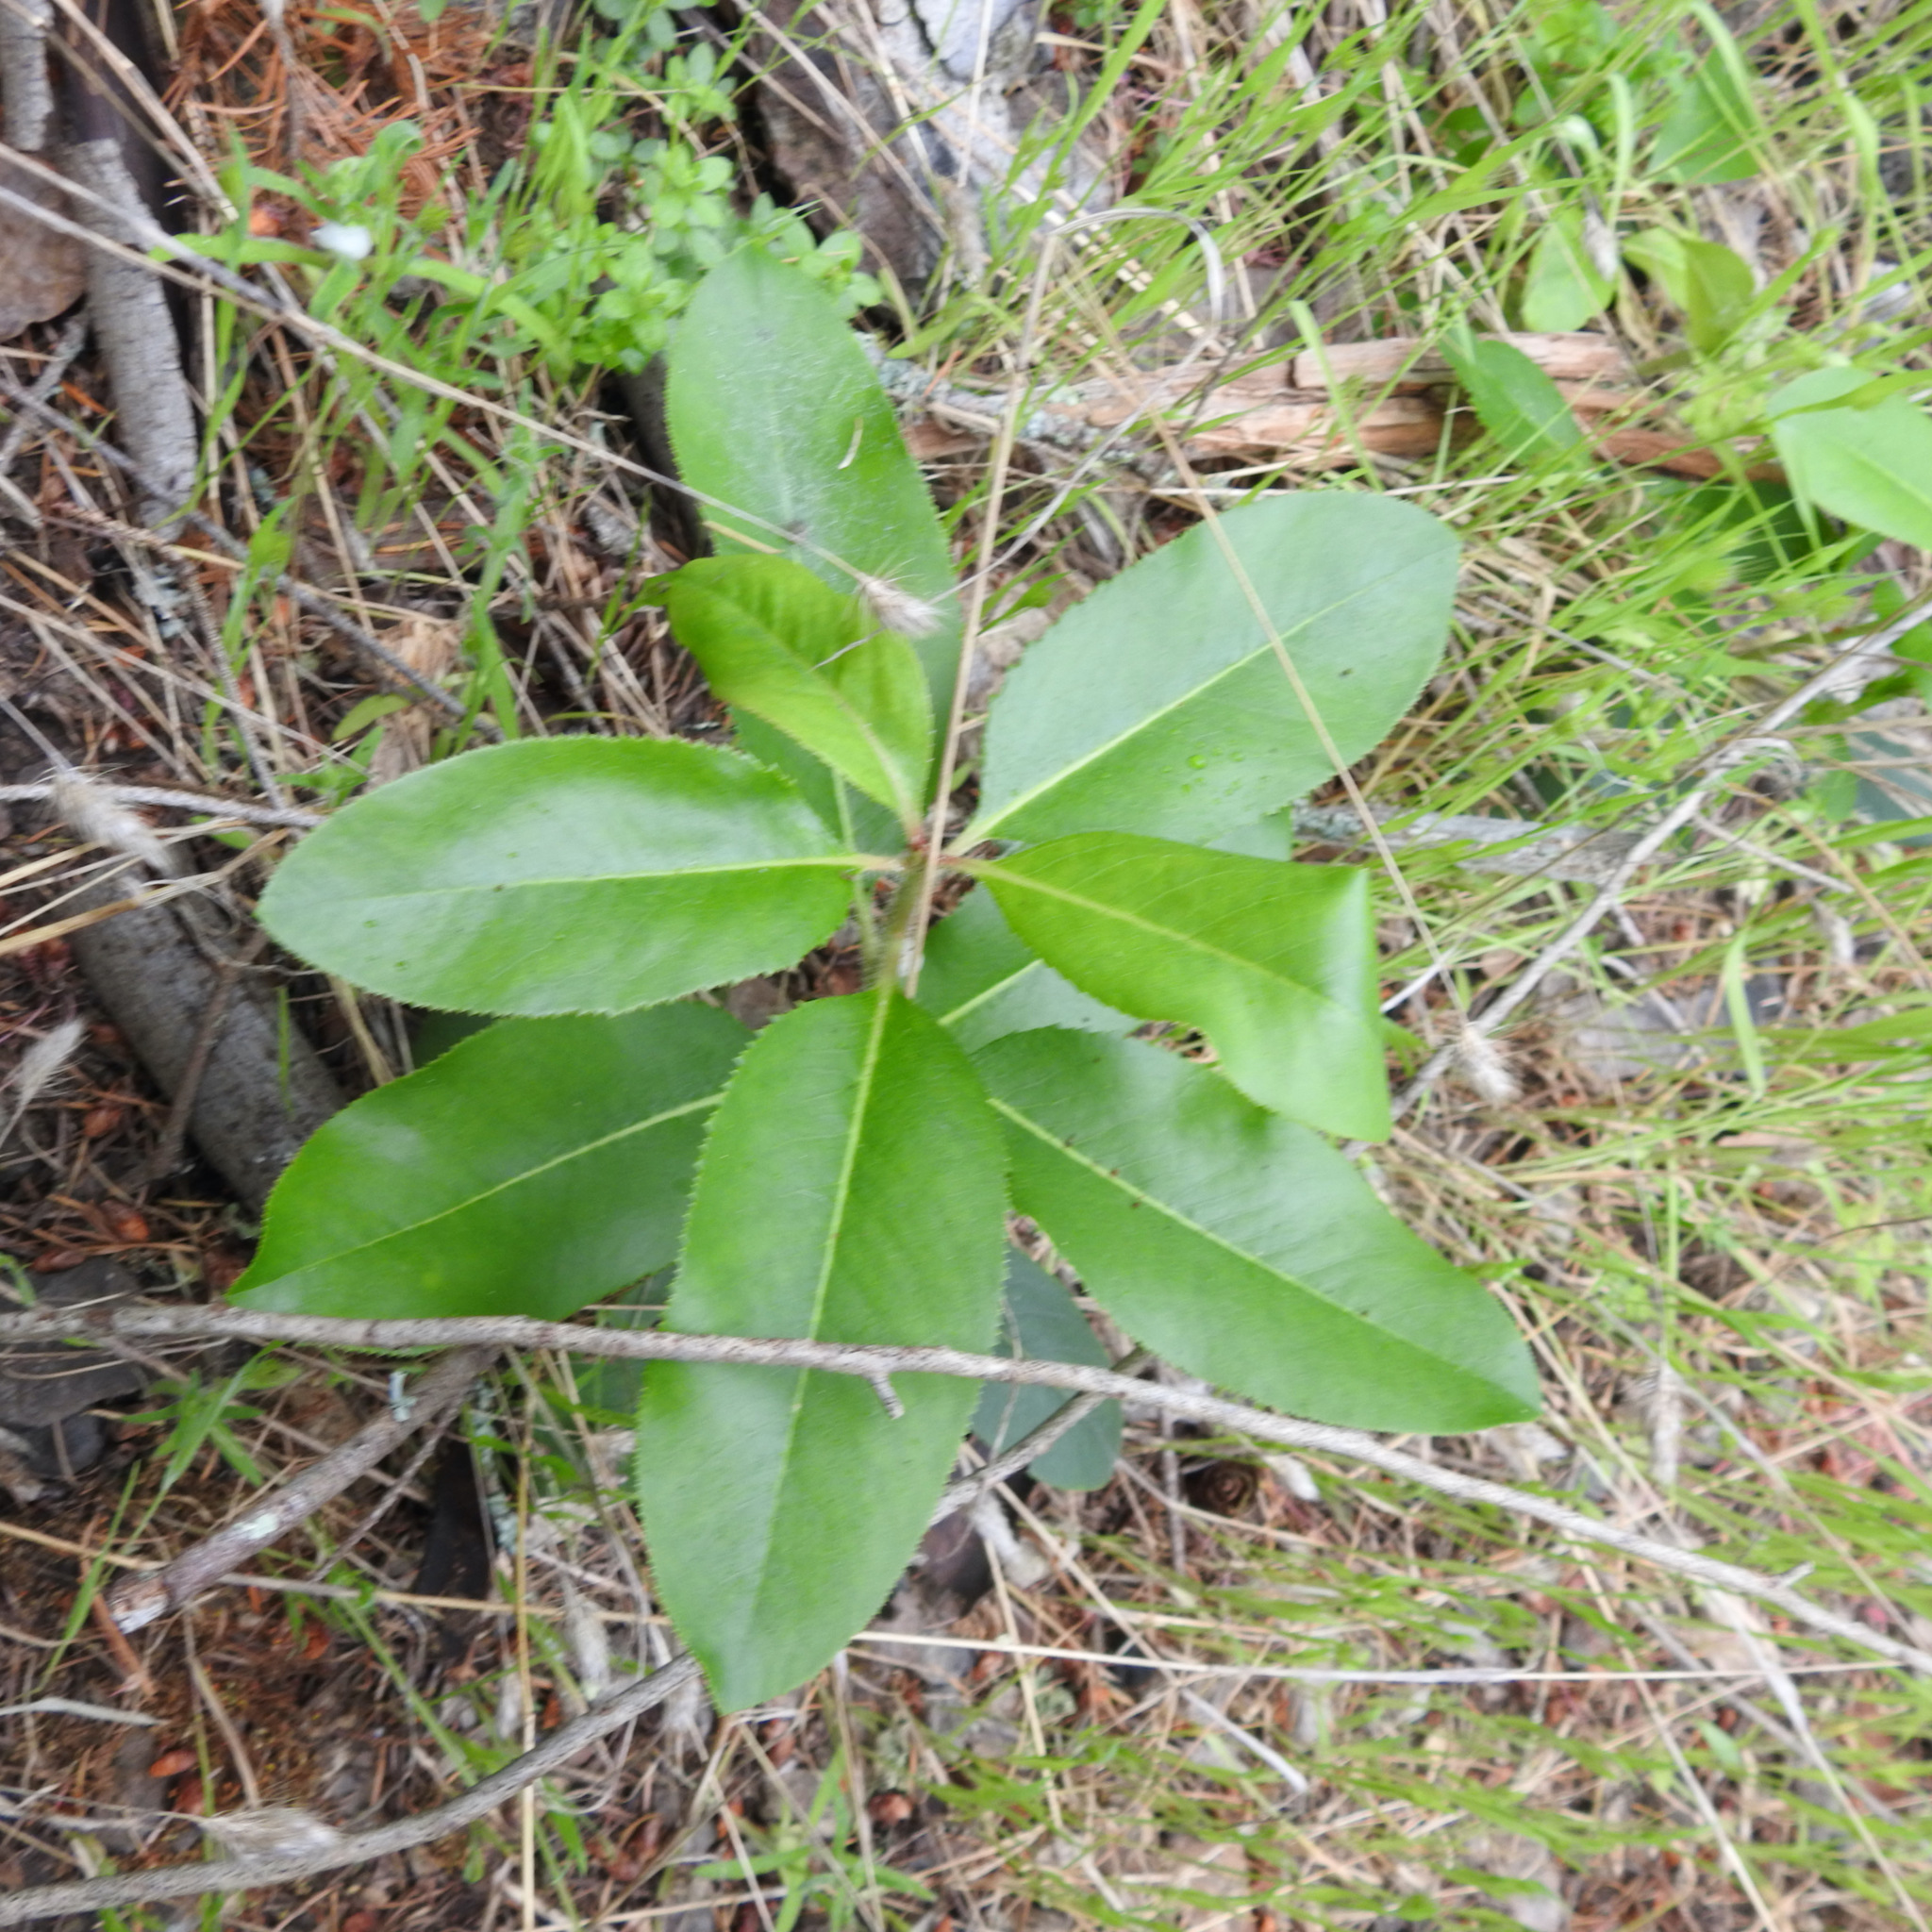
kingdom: Plantae
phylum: Tracheophyta
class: Magnoliopsida
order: Ericales
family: Ericaceae
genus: Arbutus
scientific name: Arbutus menziesii
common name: Pacific madrone
